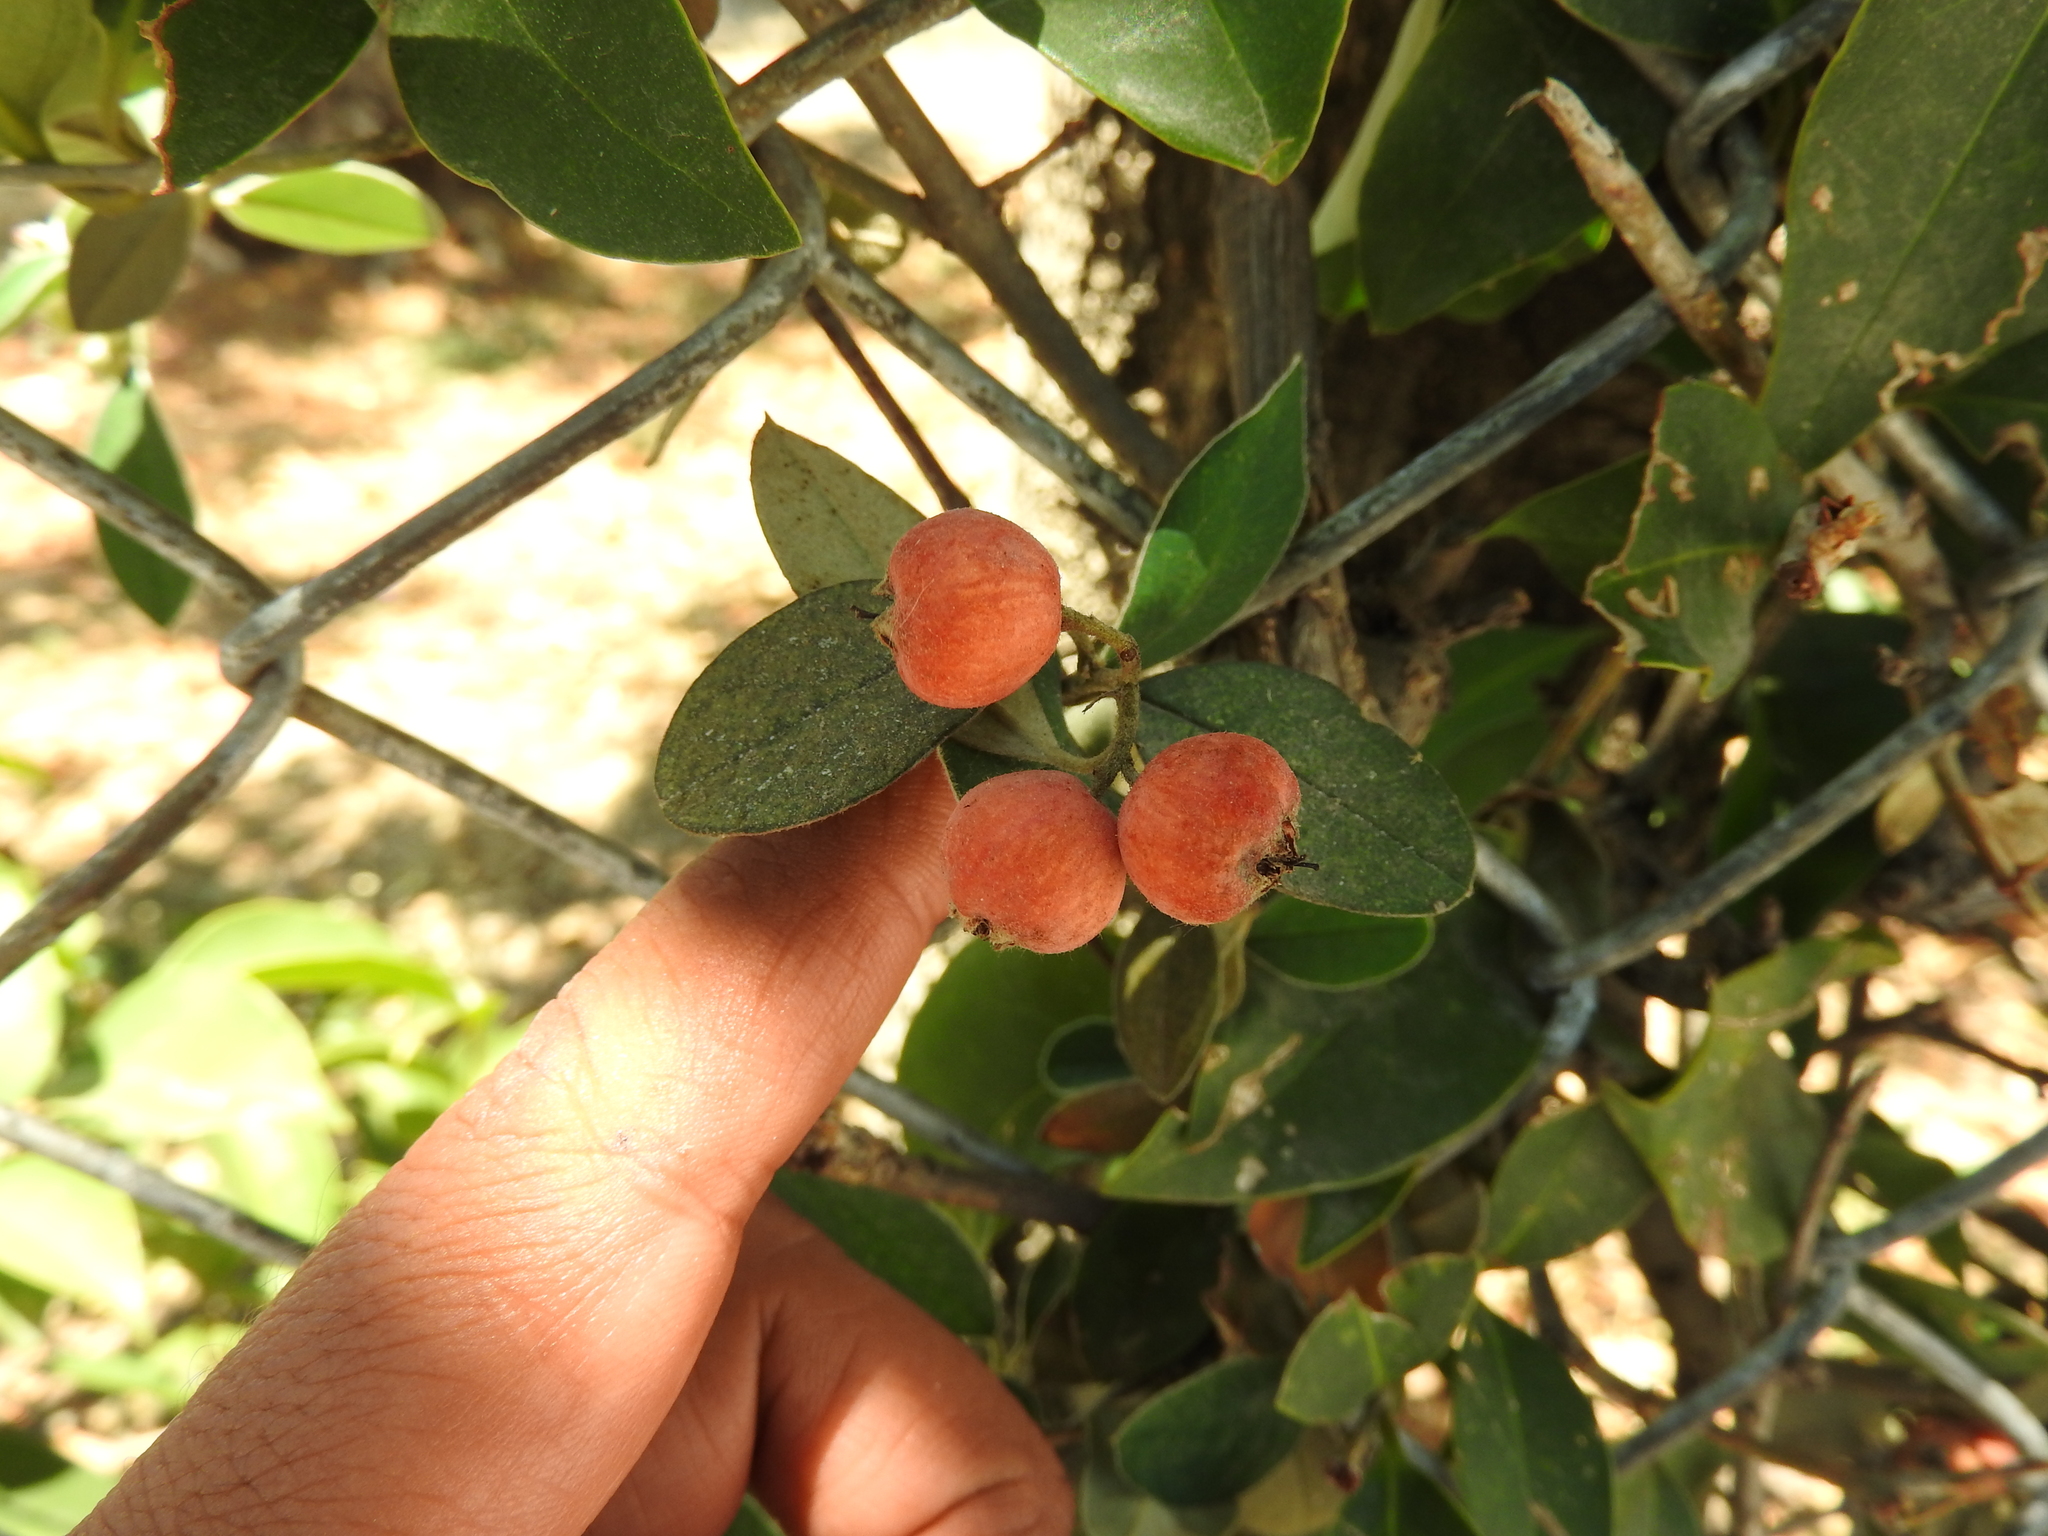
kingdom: Plantae
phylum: Tracheophyta
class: Magnoliopsida
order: Rosales
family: Rosaceae
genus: Cotoneaster
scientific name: Cotoneaster pannosus
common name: Silverleaf cotoneaster
